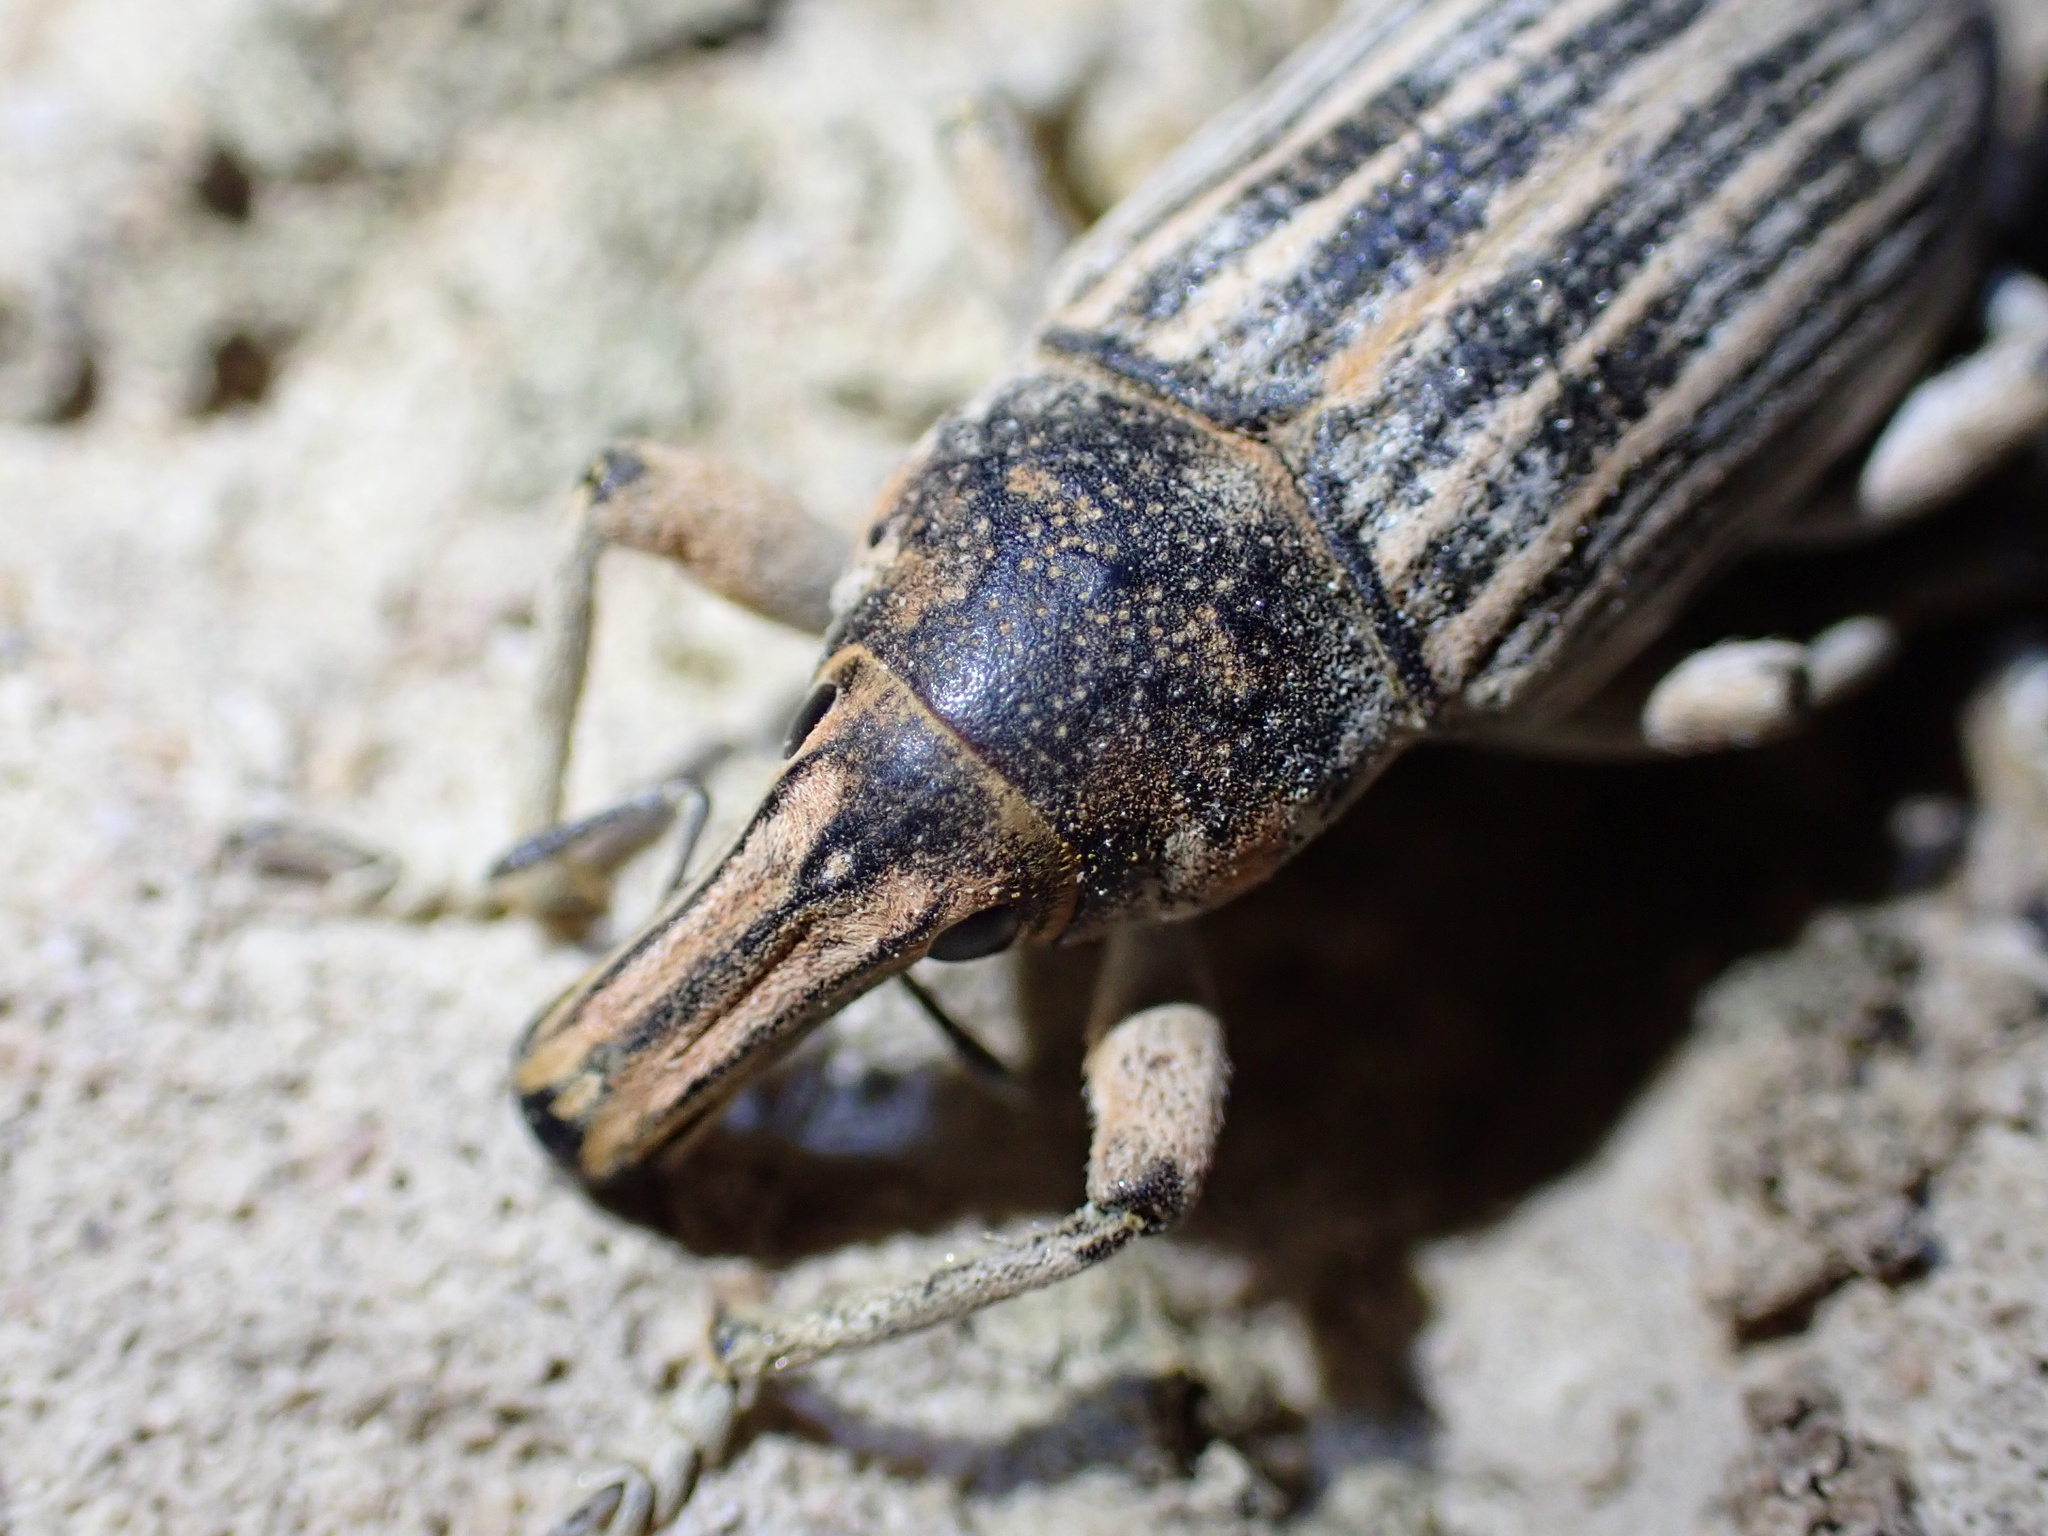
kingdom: Animalia
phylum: Arthropoda
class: Insecta
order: Coleoptera
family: Curculionidae
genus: Ammocleonus
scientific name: Ammocleonus aschabadensis
